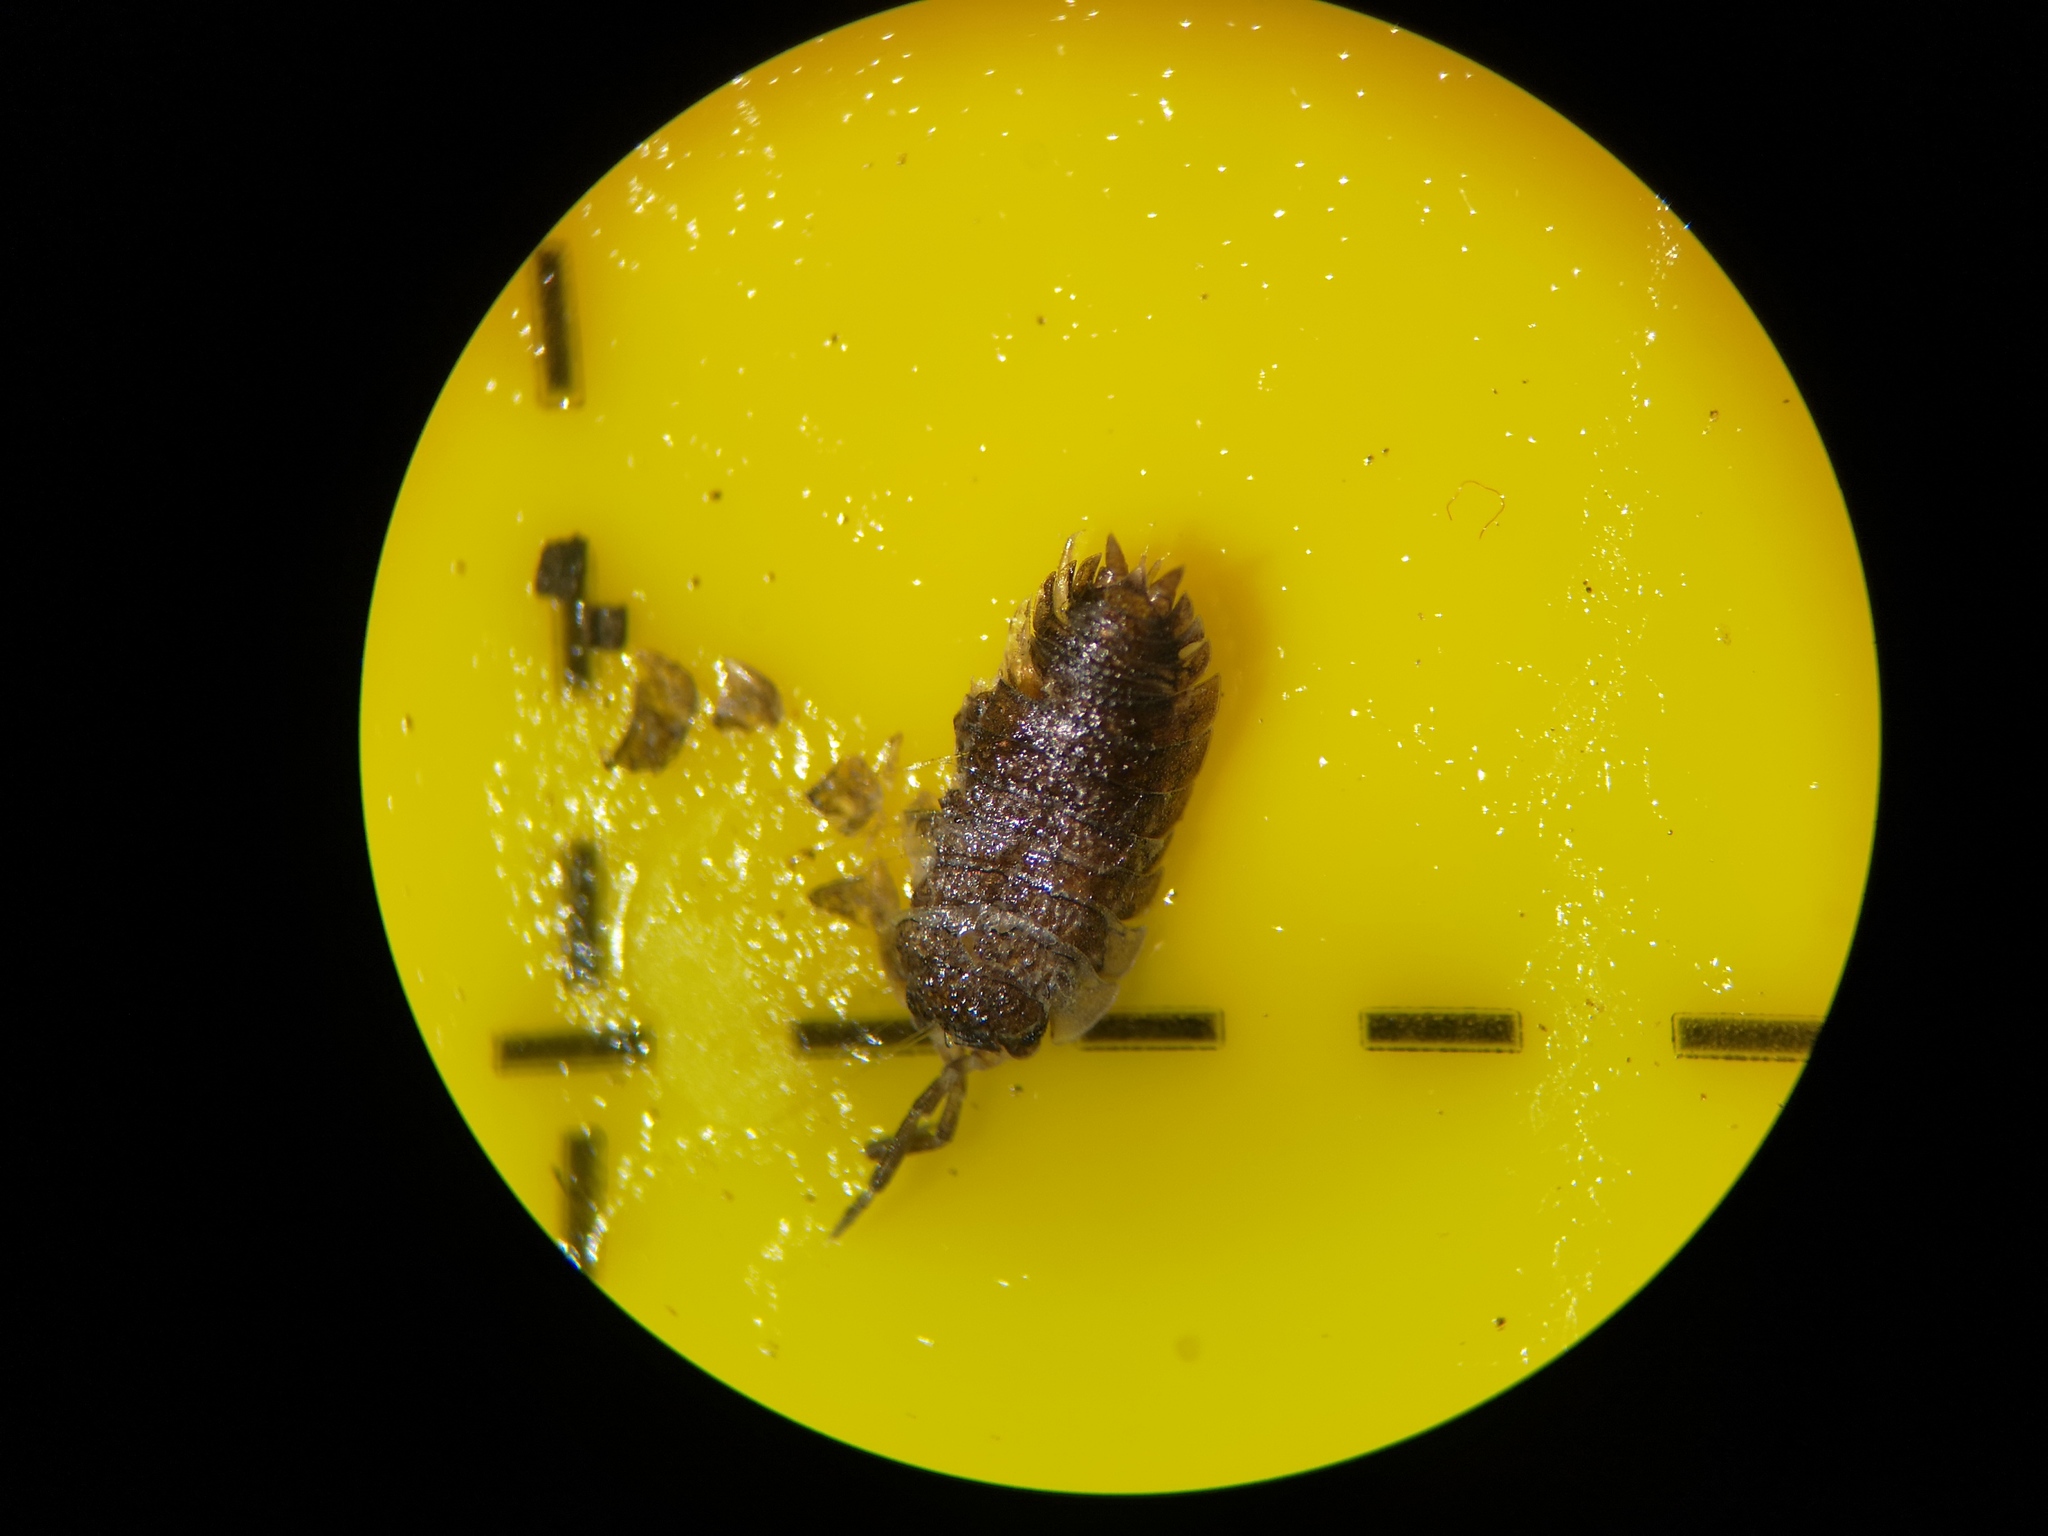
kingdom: Animalia
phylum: Arthropoda
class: Malacostraca
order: Isopoda
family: Porcellionidae
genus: Porcellio
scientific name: Porcellio scaber
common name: Common rough woodlouse
